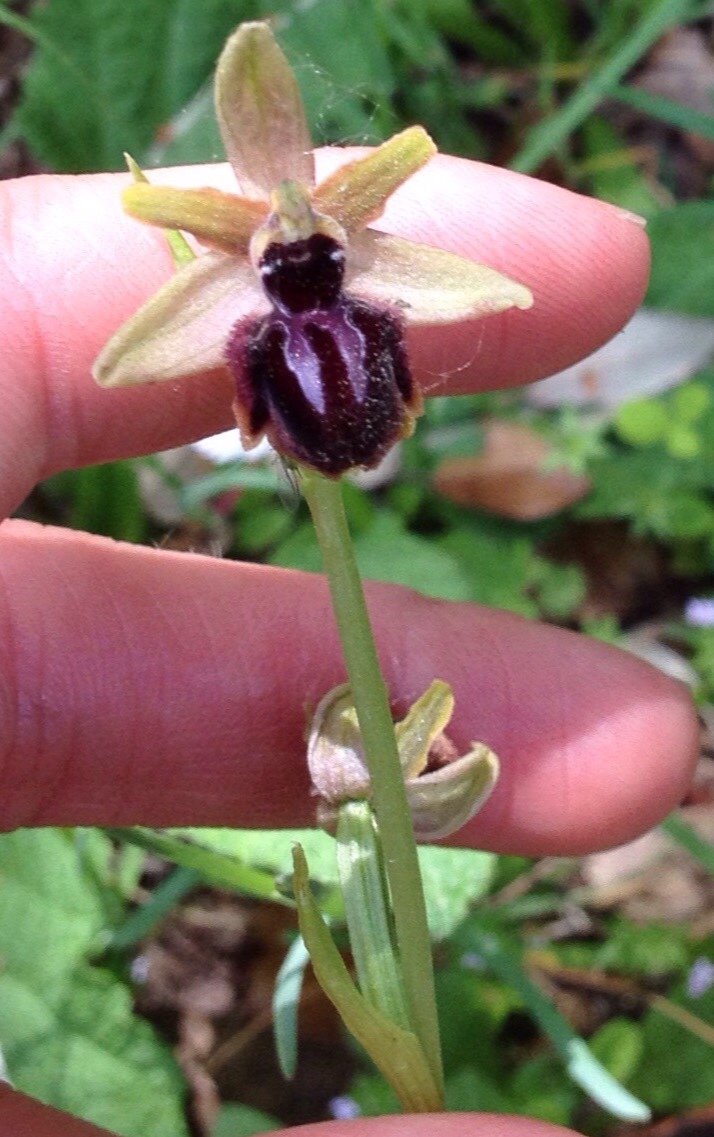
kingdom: Plantae
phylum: Tracheophyta
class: Liliopsida
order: Asparagales
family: Orchidaceae
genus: Ophrys
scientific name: Ophrys sphegodes
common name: Early spider-orchid
